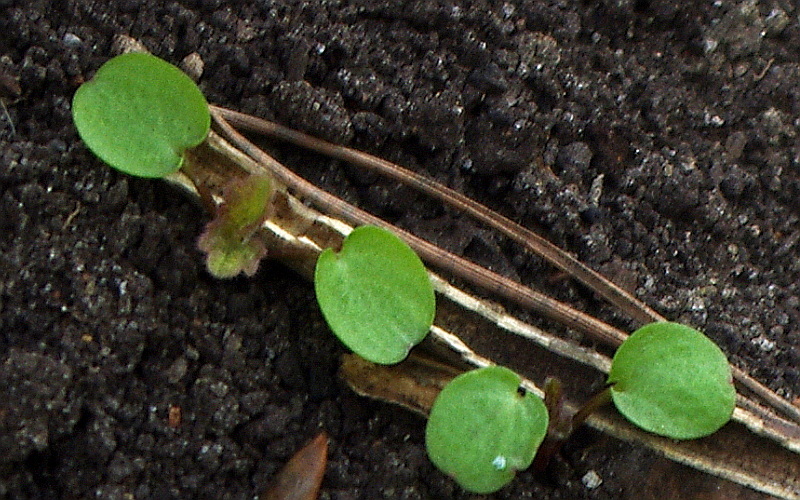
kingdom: Plantae
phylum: Tracheophyta
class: Magnoliopsida
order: Lamiales
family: Lamiaceae
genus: Lamium
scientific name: Lamium album
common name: White dead-nettle
